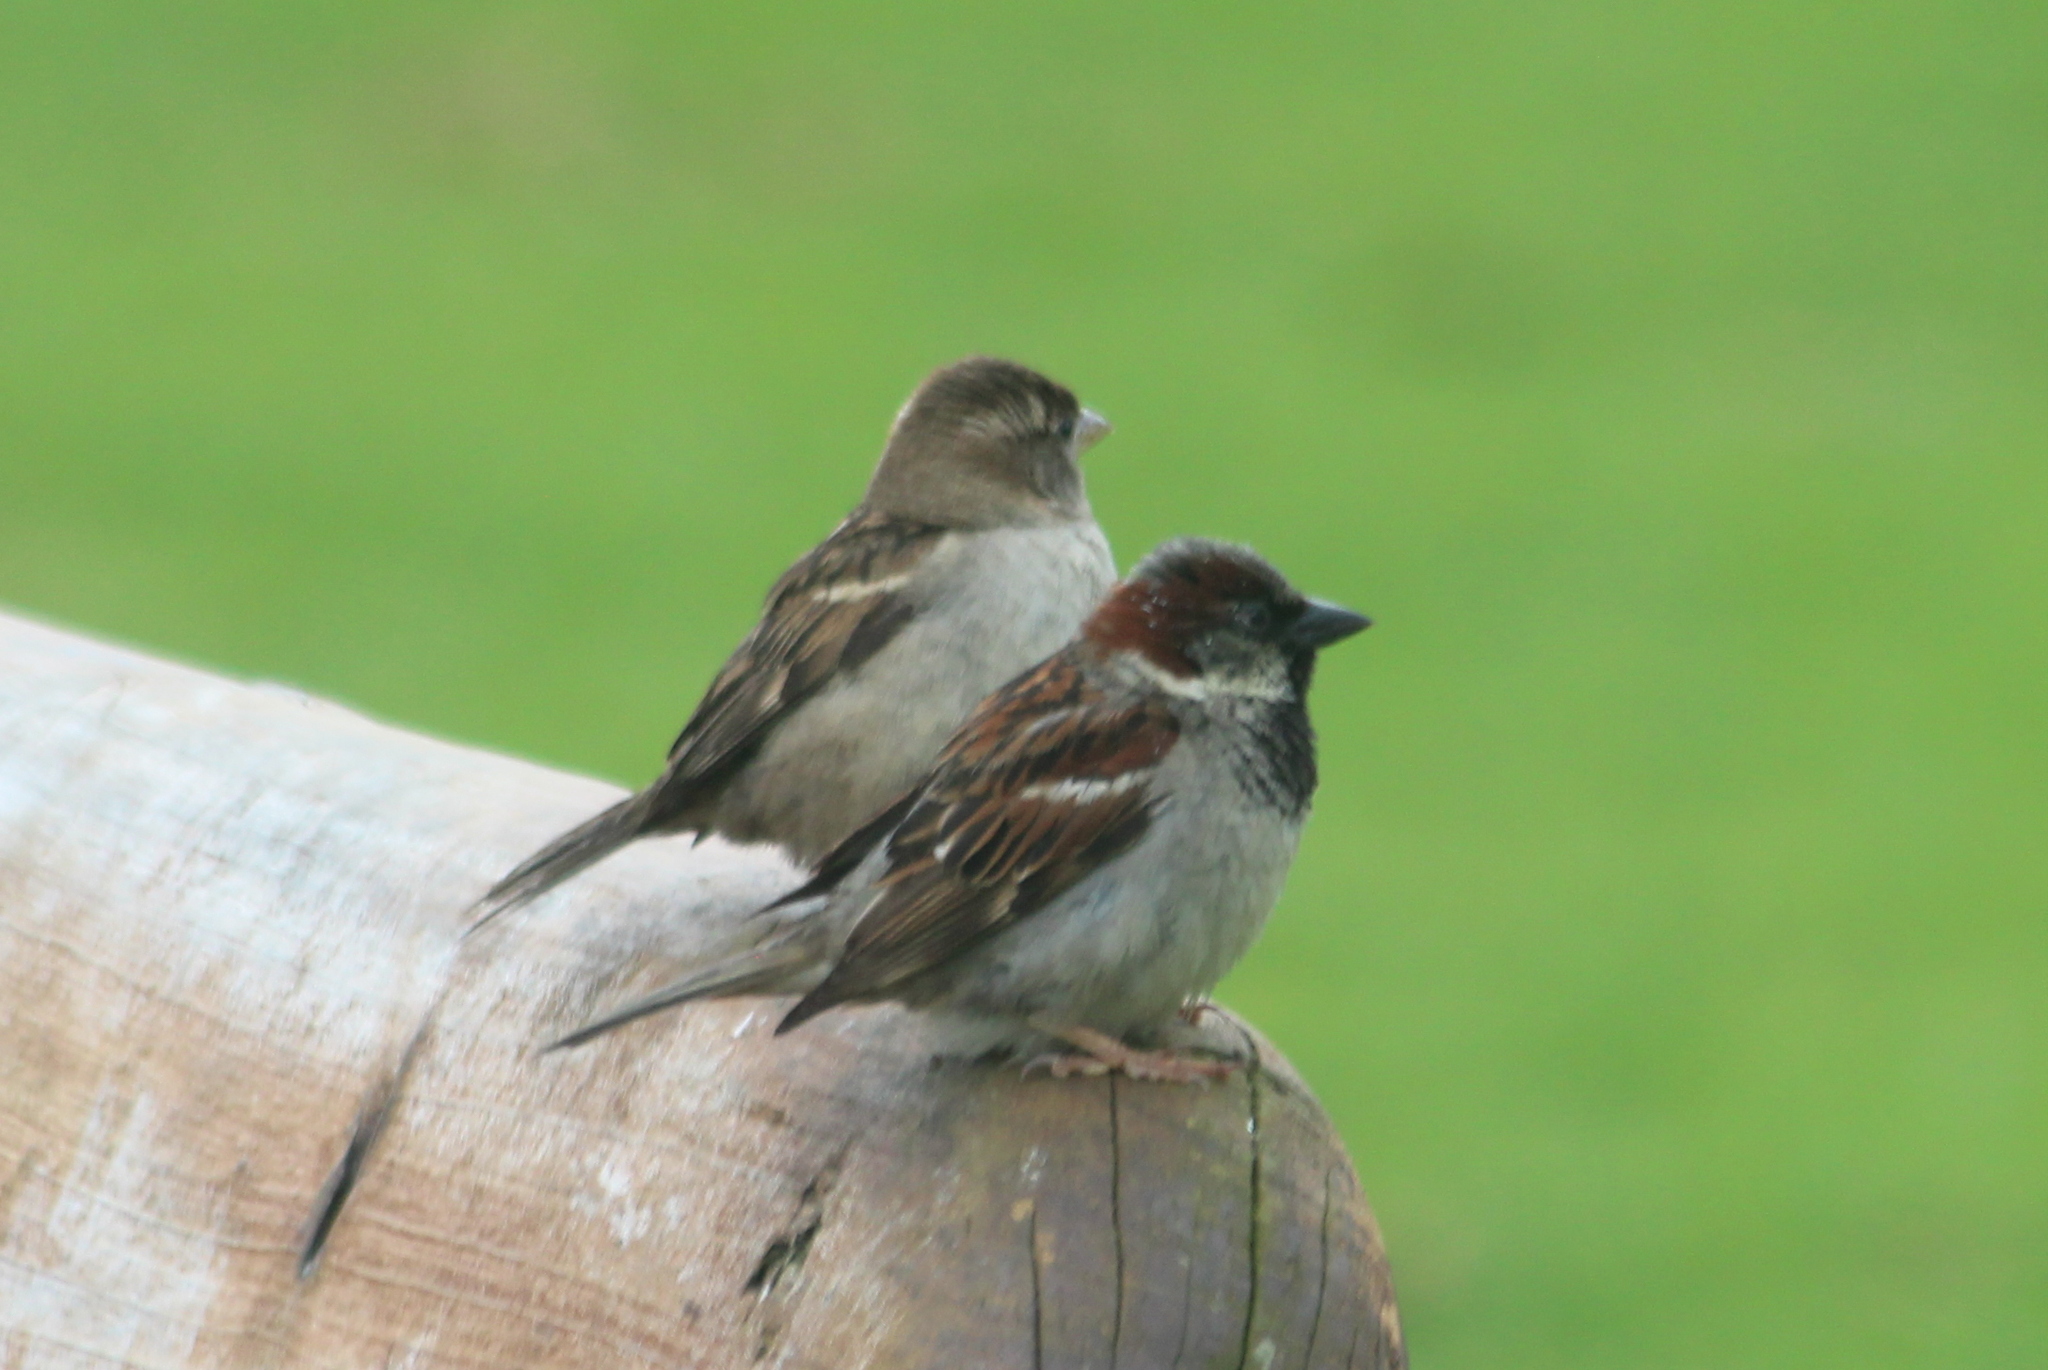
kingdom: Animalia
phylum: Chordata
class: Aves
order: Passeriformes
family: Passeridae
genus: Passer
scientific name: Passer domesticus
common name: House sparrow
